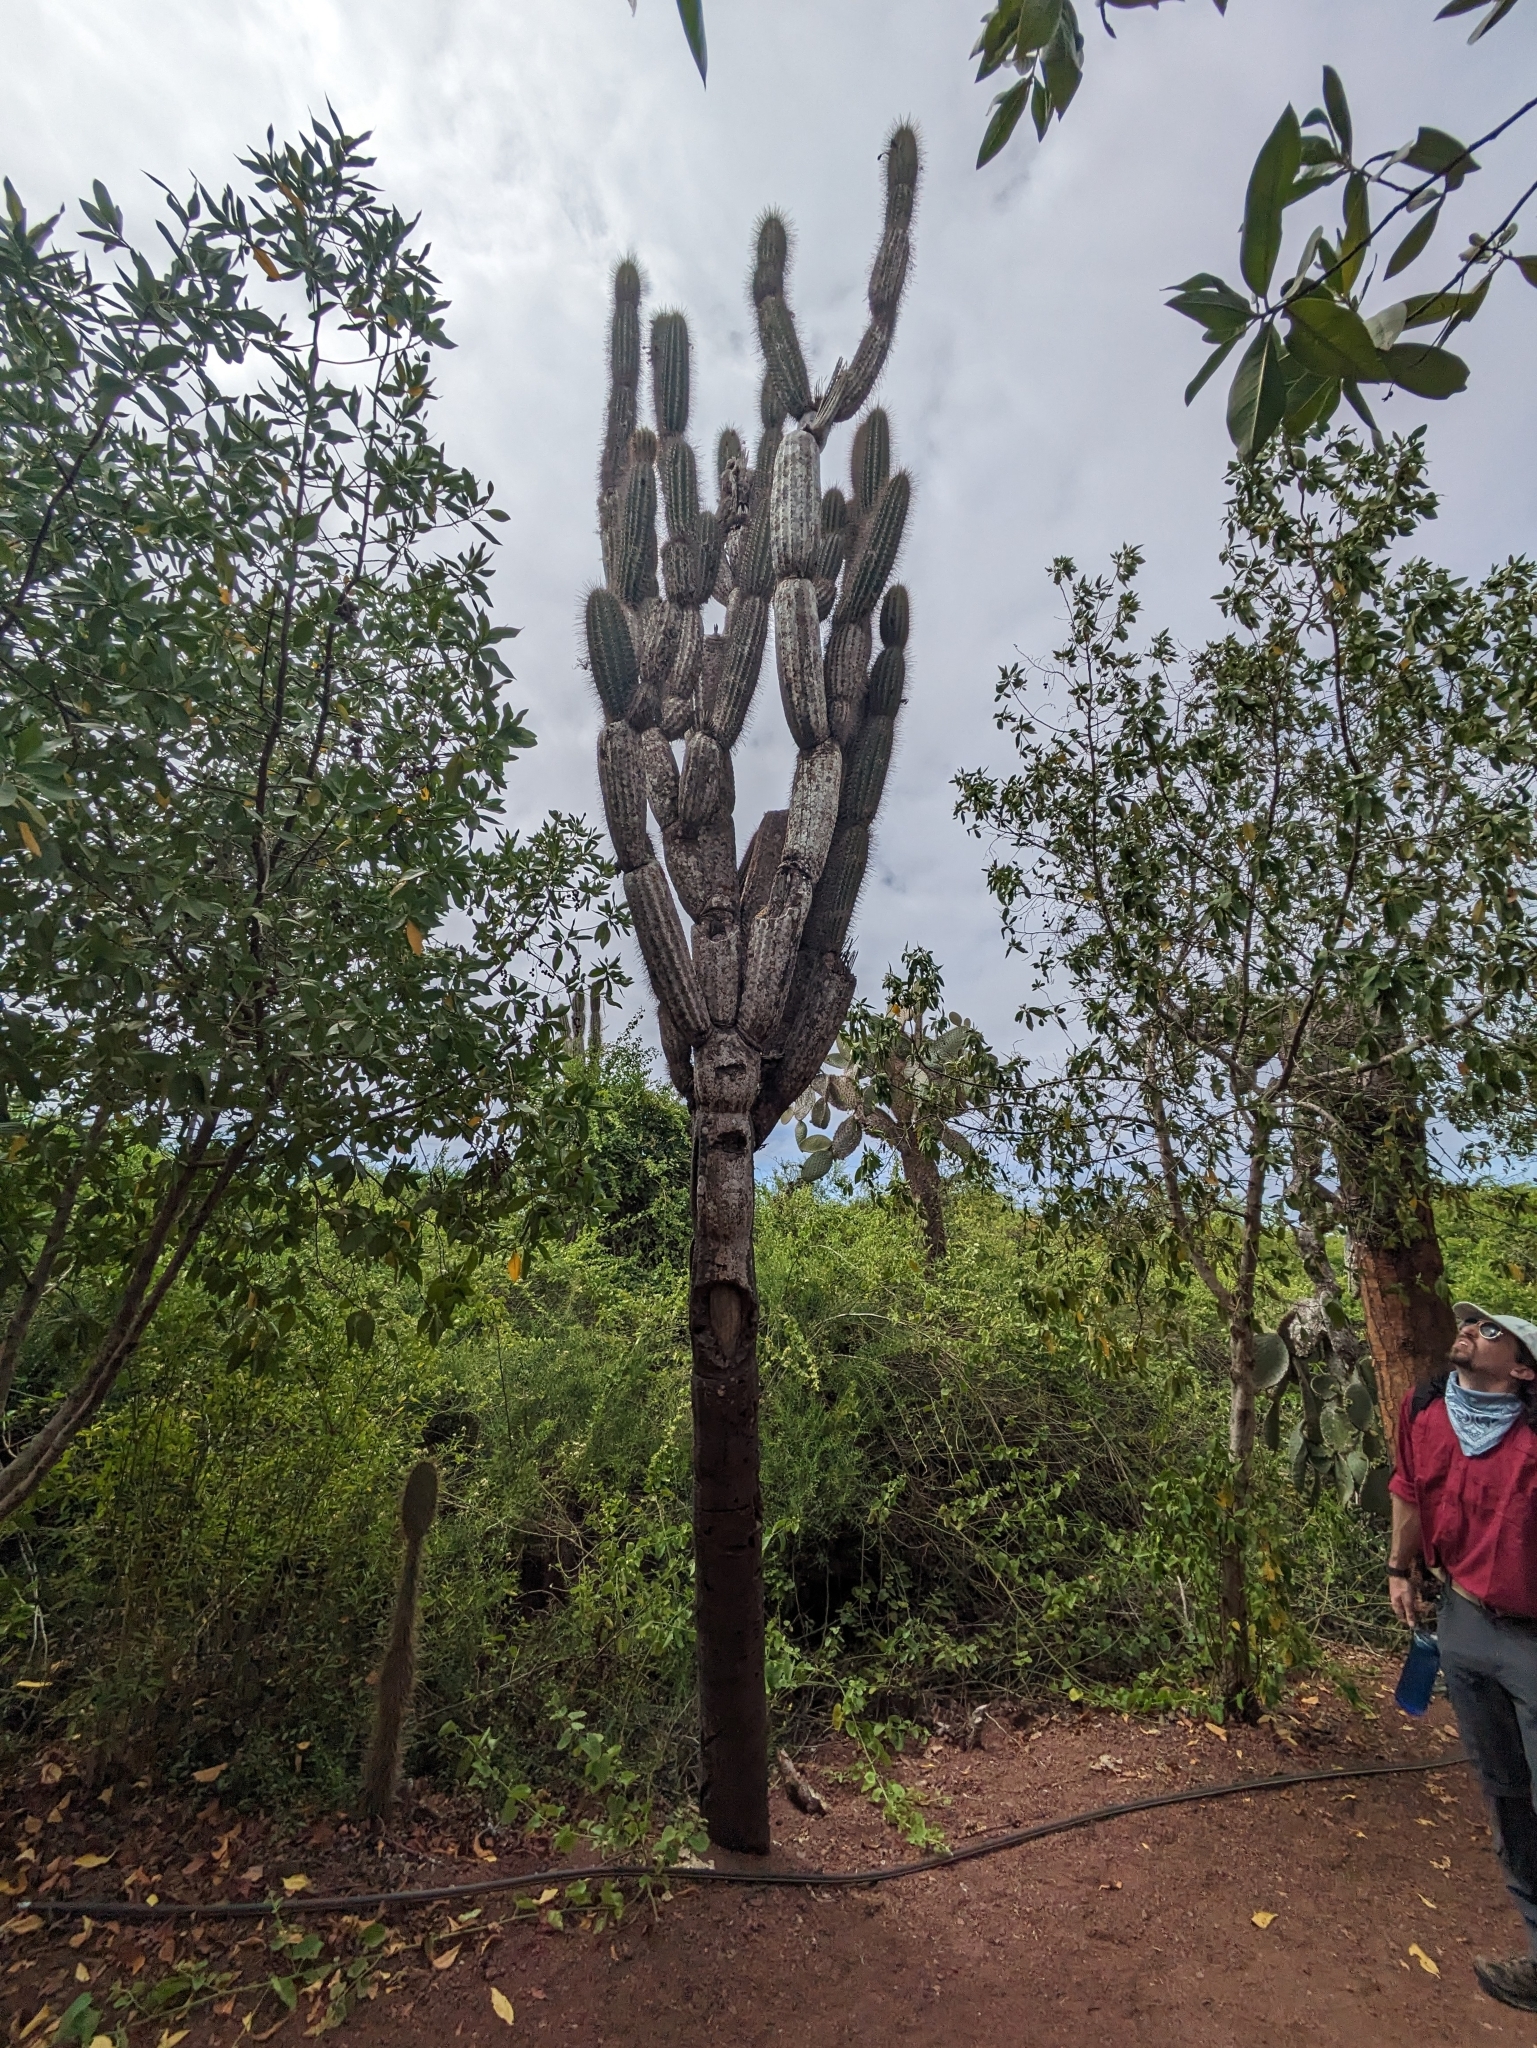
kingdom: Plantae
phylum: Tracheophyta
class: Magnoliopsida
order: Caryophyllales
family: Cactaceae
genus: Jasminocereus
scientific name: Jasminocereus thouarsii
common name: Candelabra cactus
